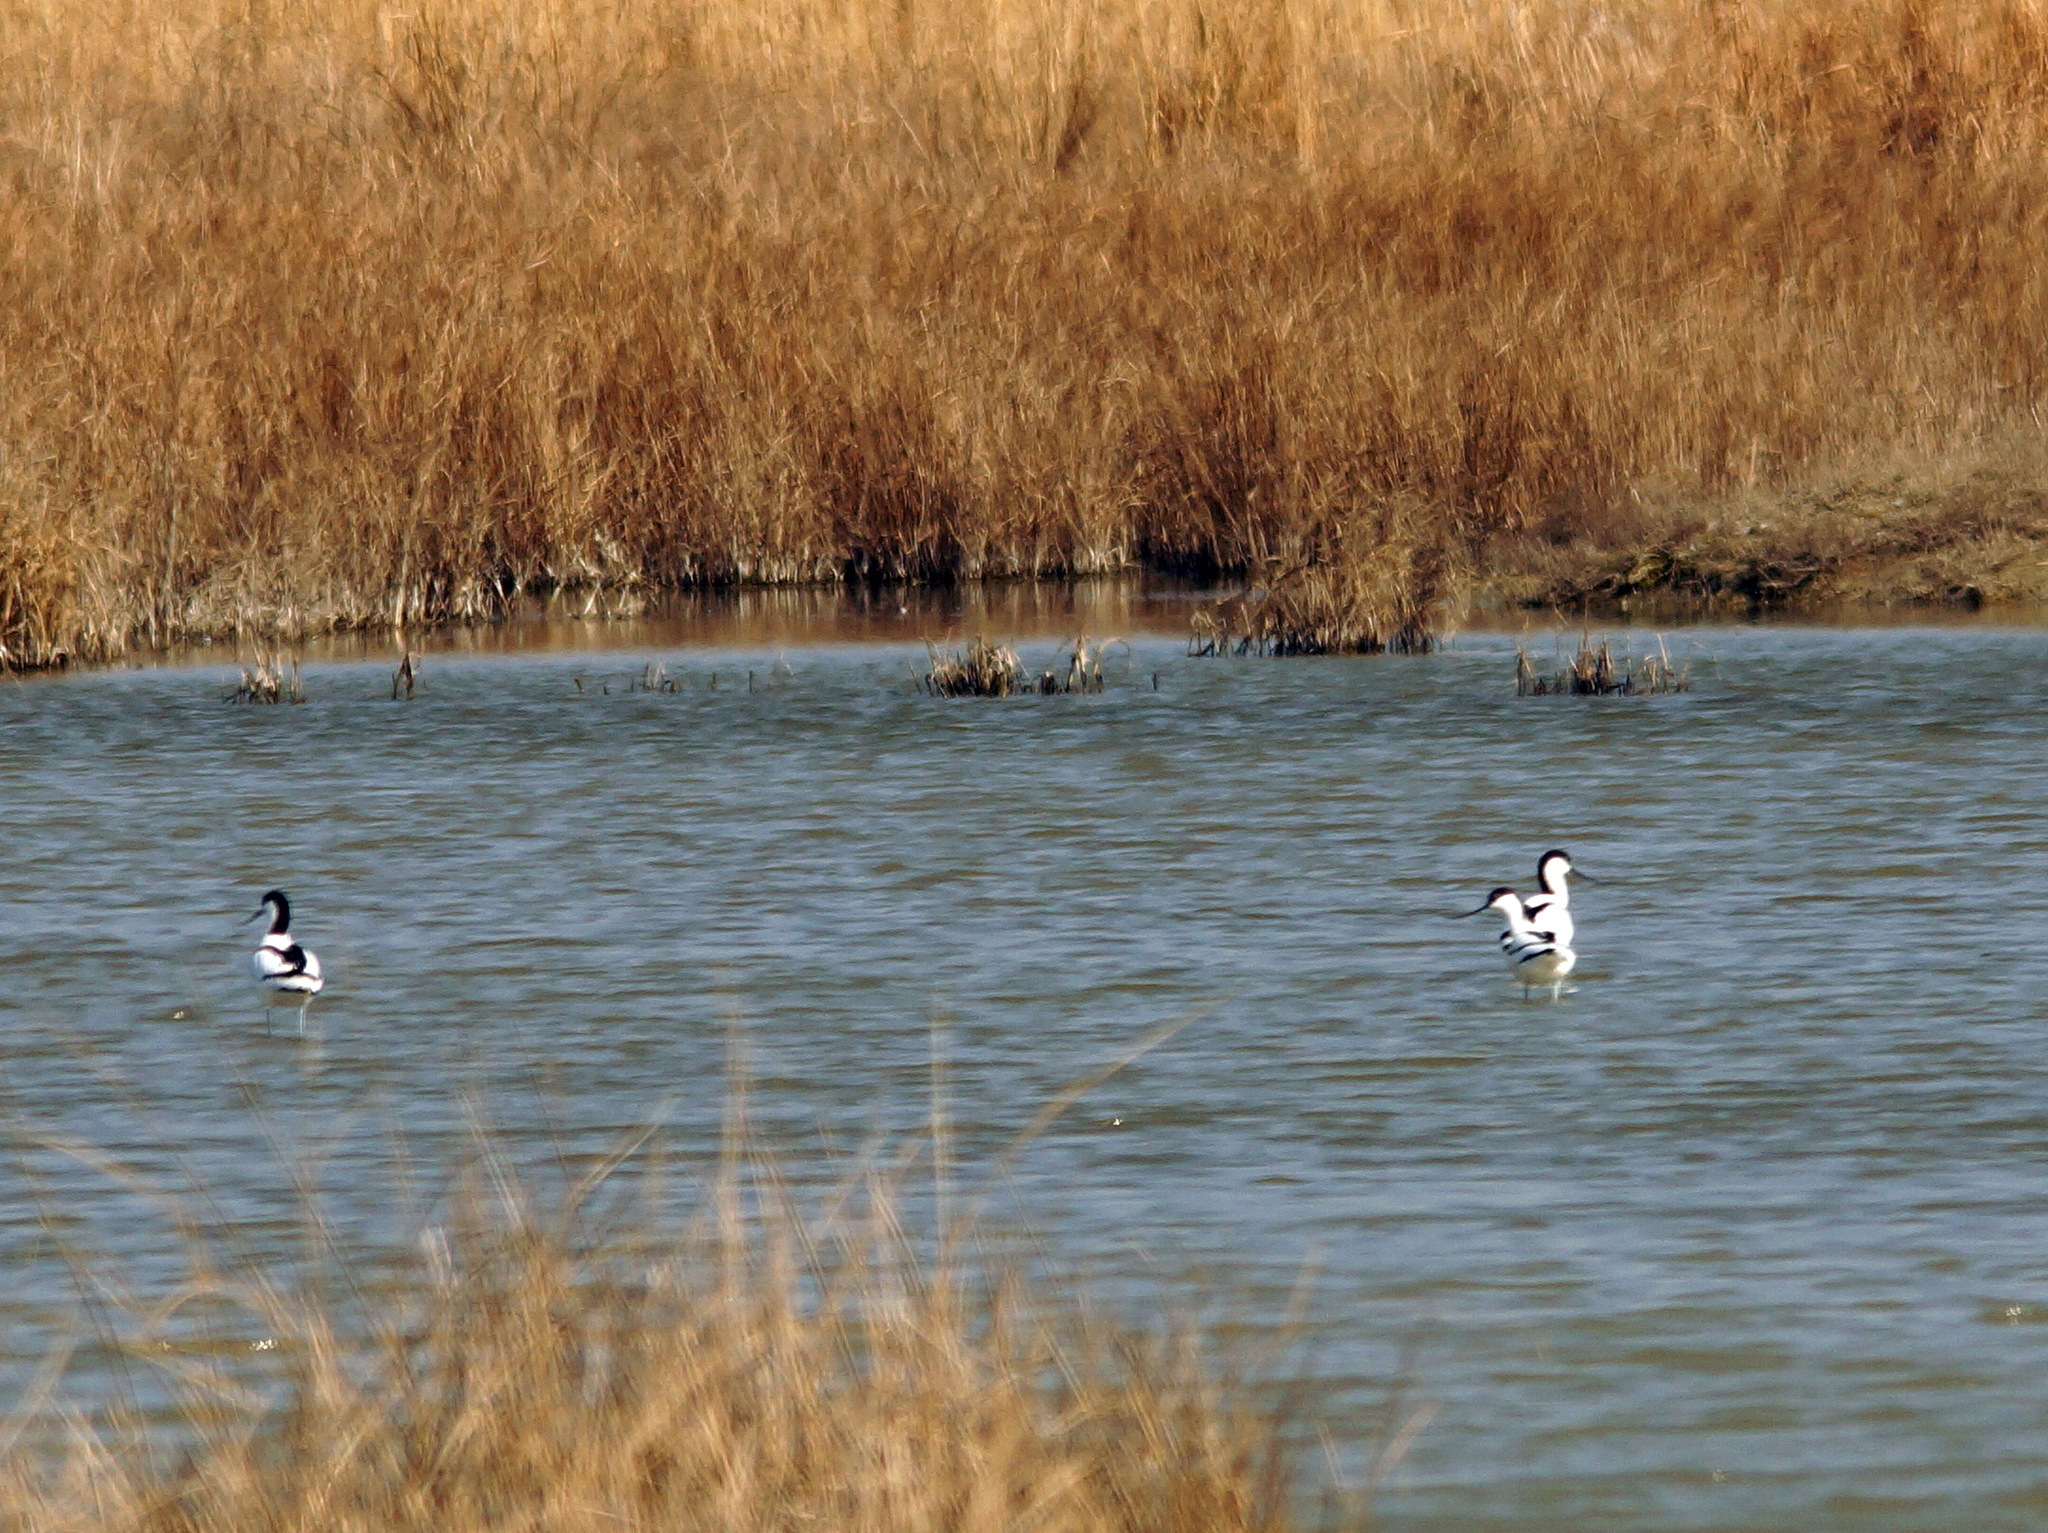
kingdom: Animalia
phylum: Chordata
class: Aves
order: Charadriiformes
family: Recurvirostridae
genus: Recurvirostra
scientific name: Recurvirostra avosetta
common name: Pied avocet
